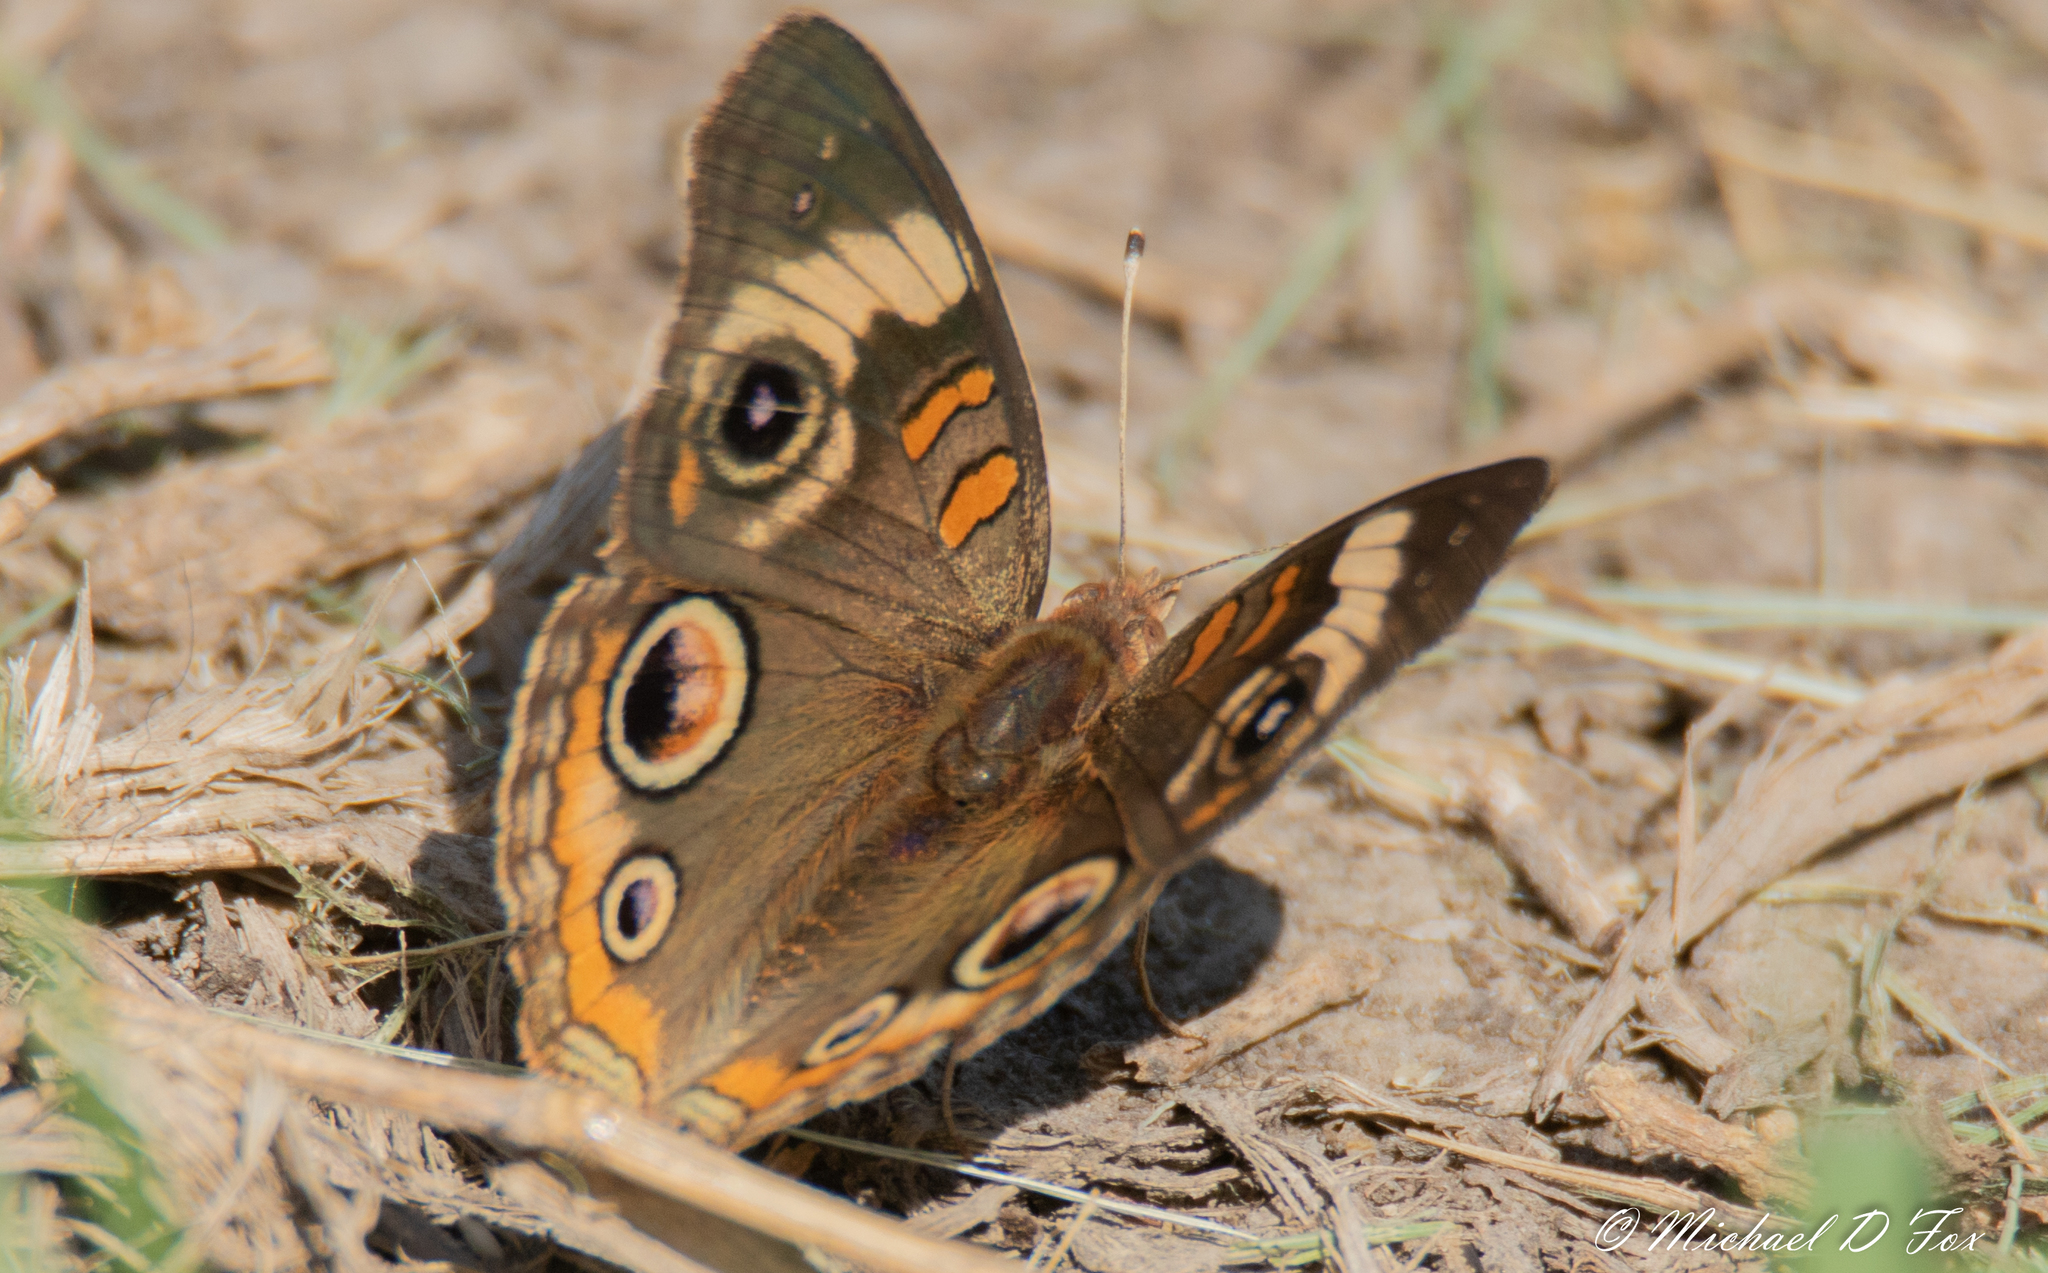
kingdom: Animalia
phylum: Arthropoda
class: Insecta
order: Lepidoptera
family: Nymphalidae
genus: Junonia
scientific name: Junonia coenia
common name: Common buckeye
